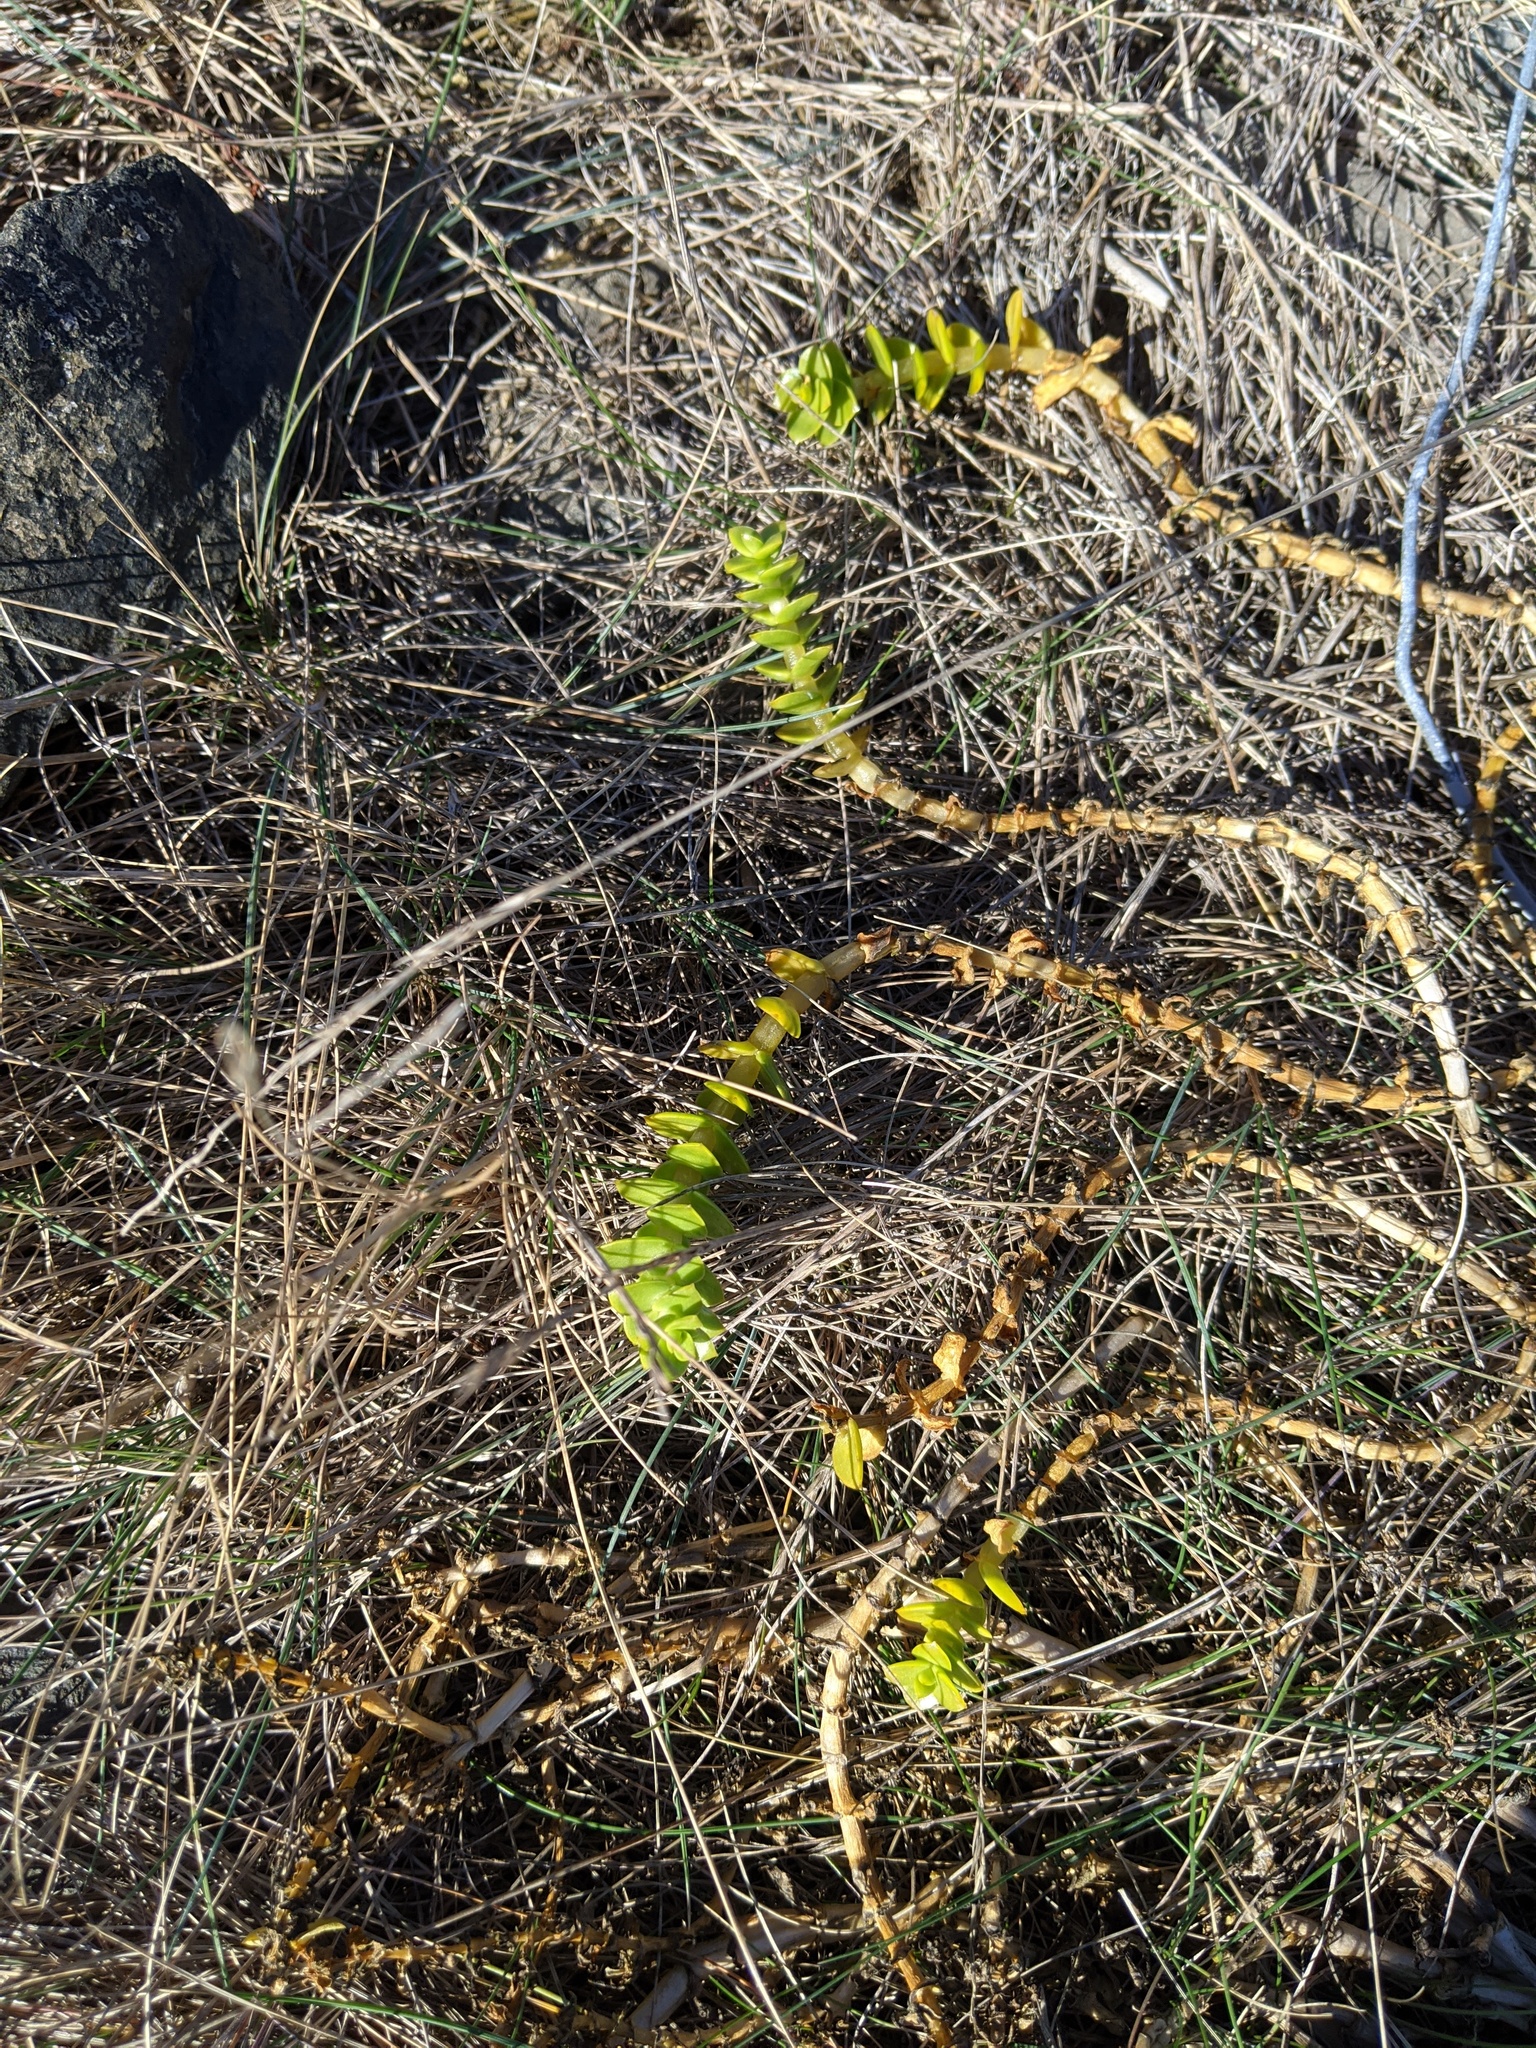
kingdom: Plantae
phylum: Tracheophyta
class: Magnoliopsida
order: Caryophyllales
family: Caryophyllaceae
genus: Honckenya
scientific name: Honckenya peploides
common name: Sea sandwort
